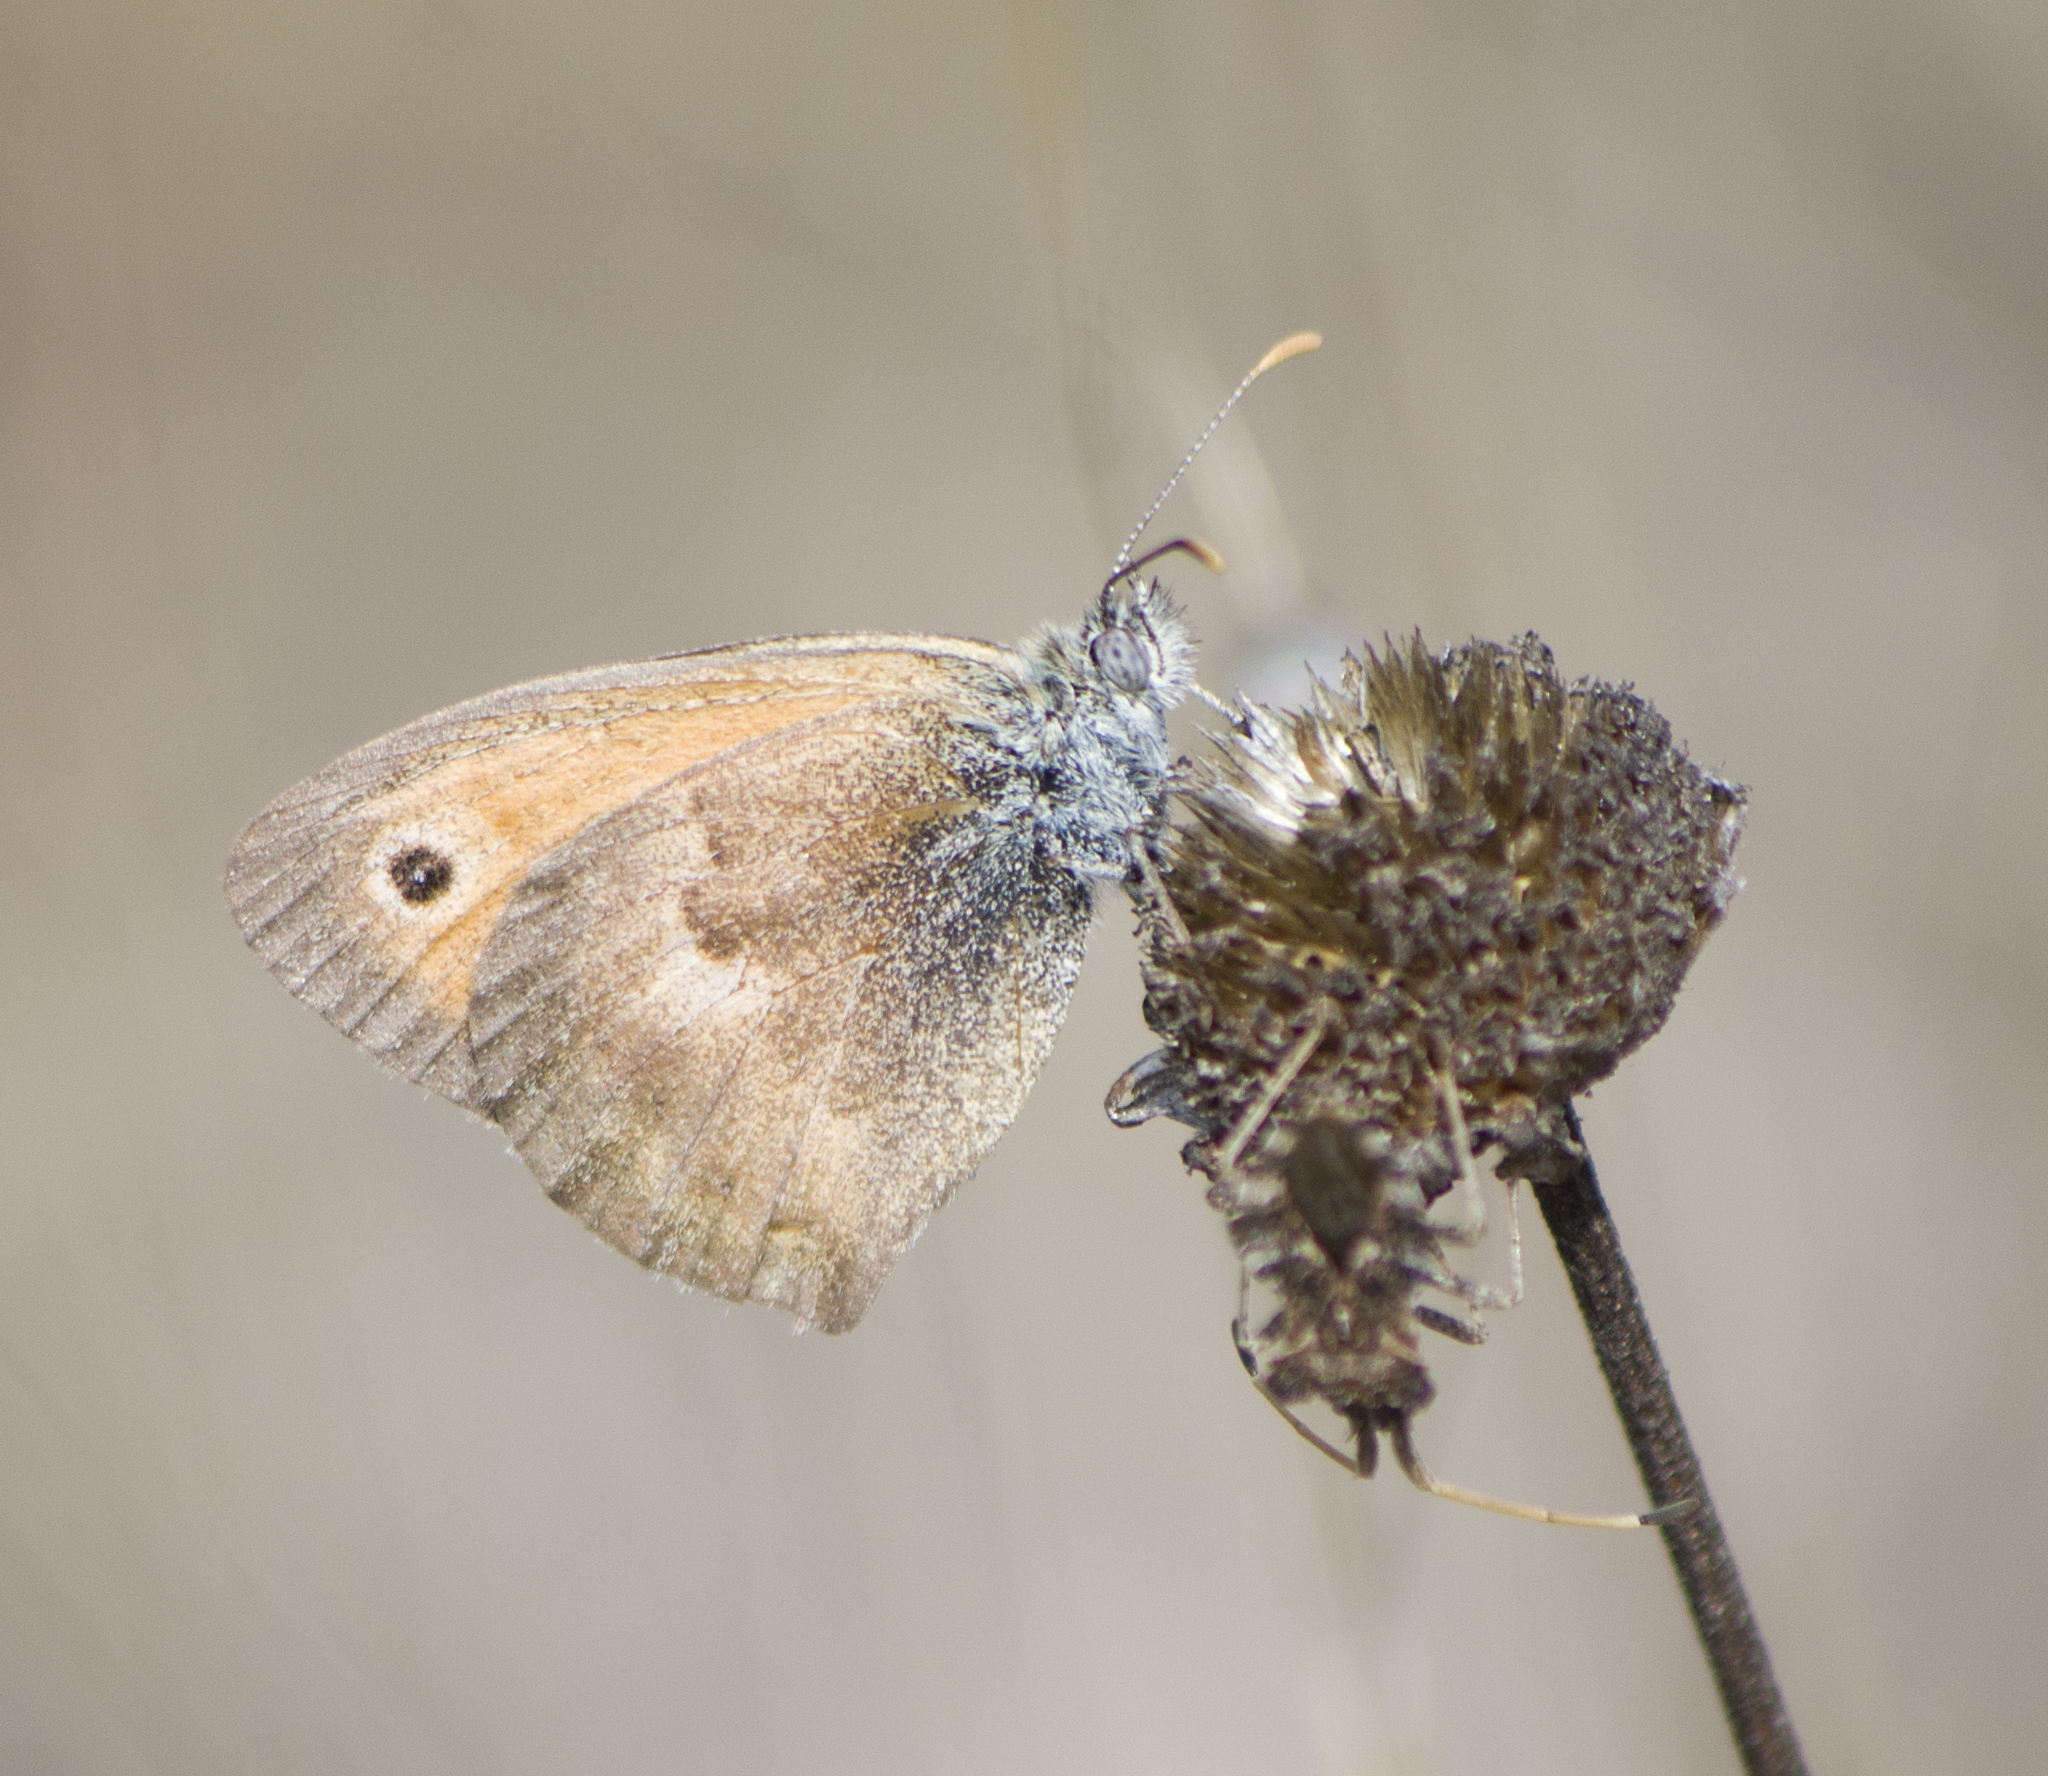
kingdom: Animalia
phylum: Arthropoda
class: Insecta
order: Lepidoptera
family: Nymphalidae
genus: Coenonympha
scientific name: Coenonympha pamphilus
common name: Small heath
